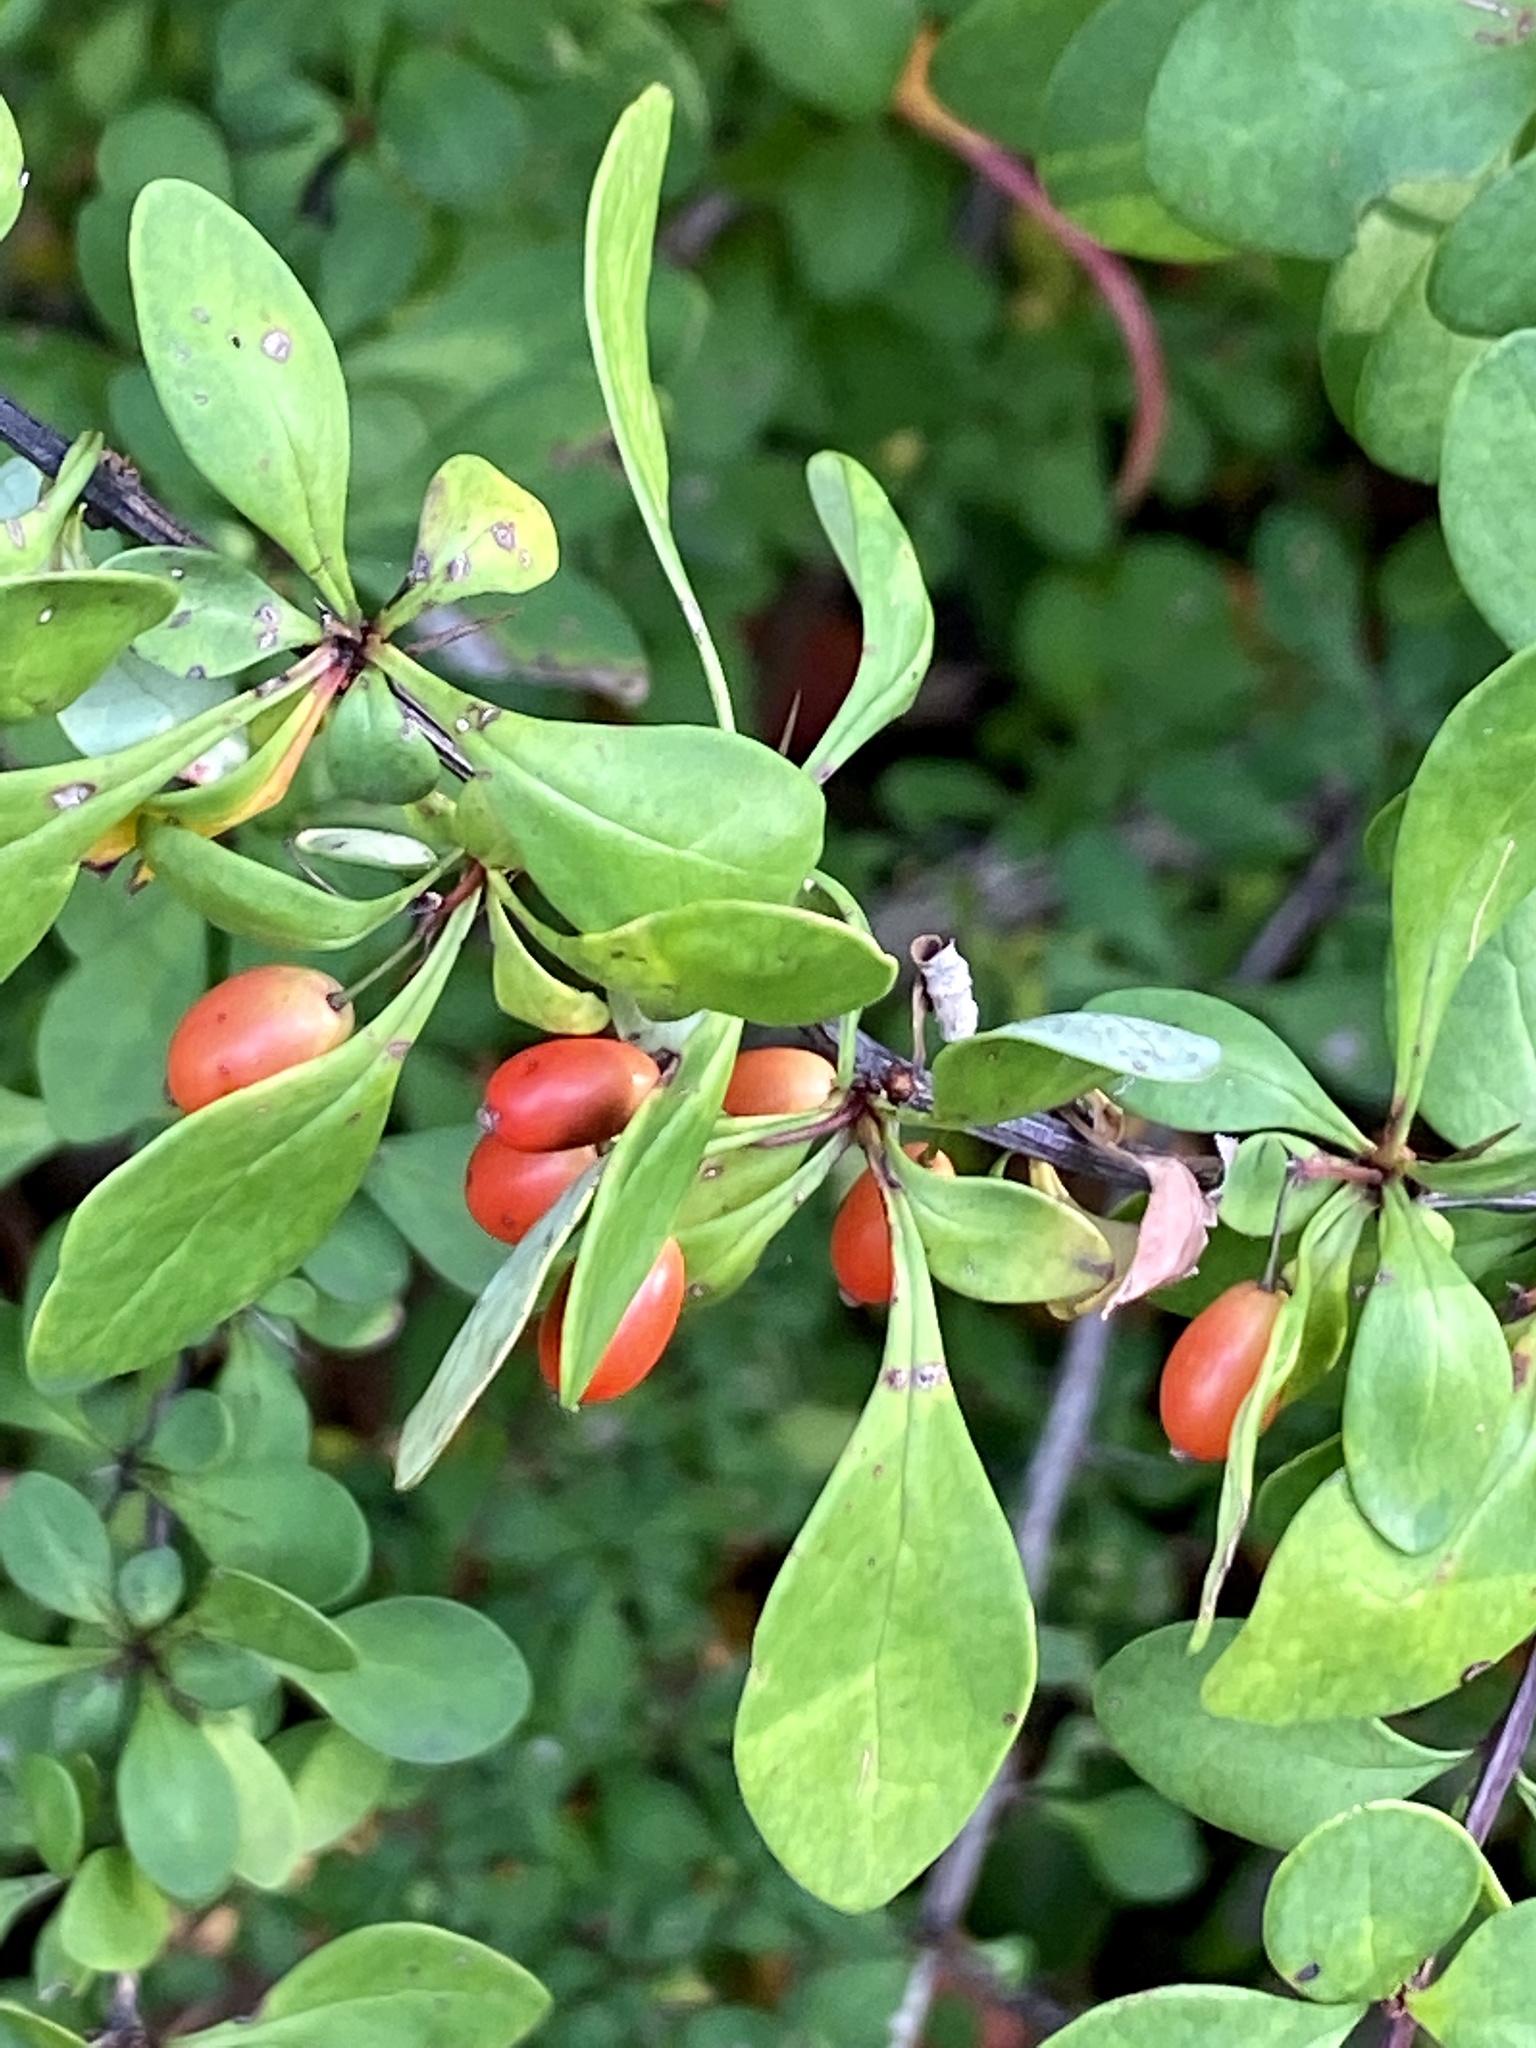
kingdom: Plantae
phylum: Tracheophyta
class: Magnoliopsida
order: Ranunculales
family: Berberidaceae
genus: Berberis
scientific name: Berberis thunbergii
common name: Japanese barberry
